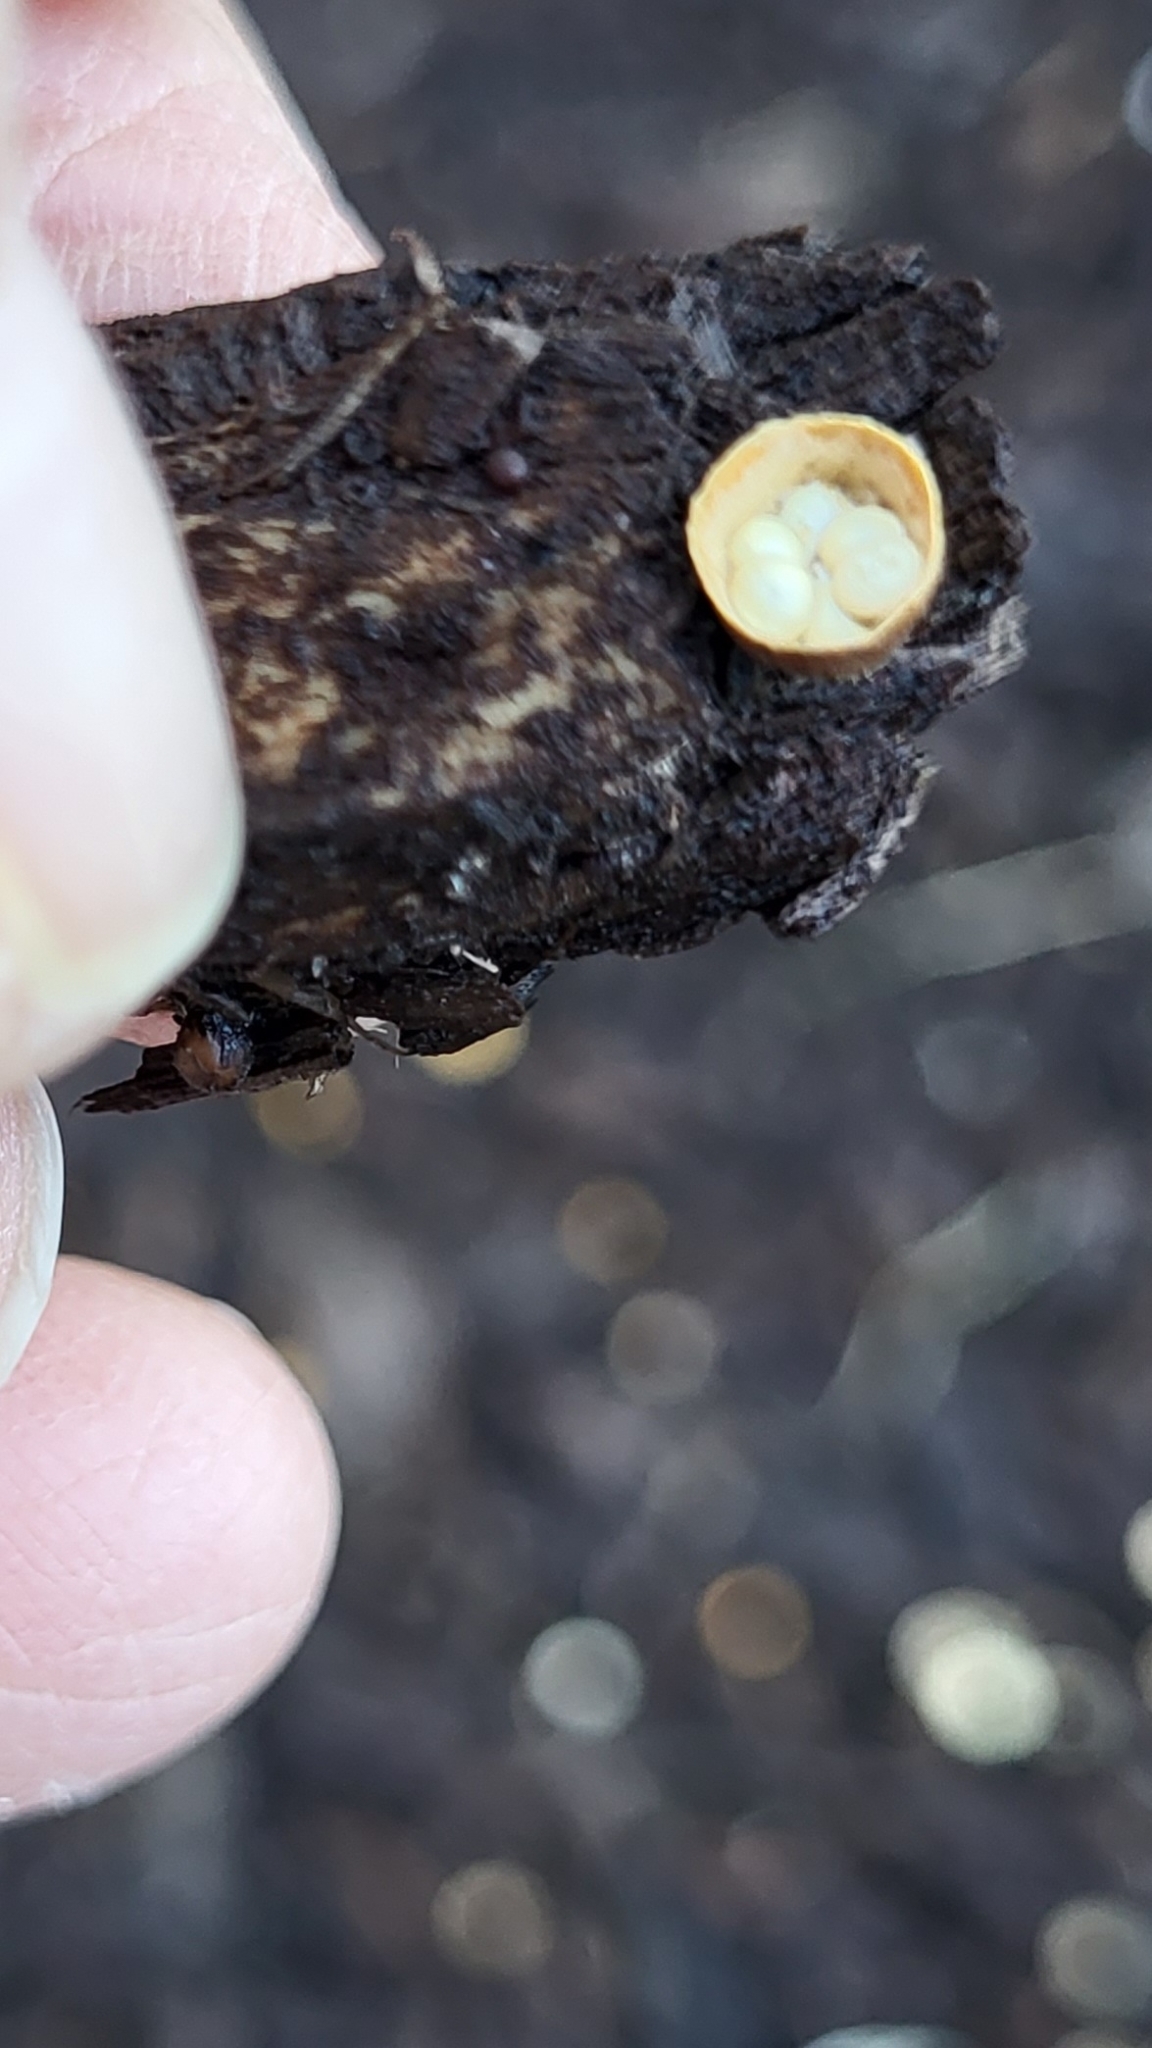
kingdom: Fungi
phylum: Basidiomycota
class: Agaricomycetes
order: Agaricales
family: Nidulariaceae
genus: Crucibulum
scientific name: Crucibulum laeve
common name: Common bird's nest
